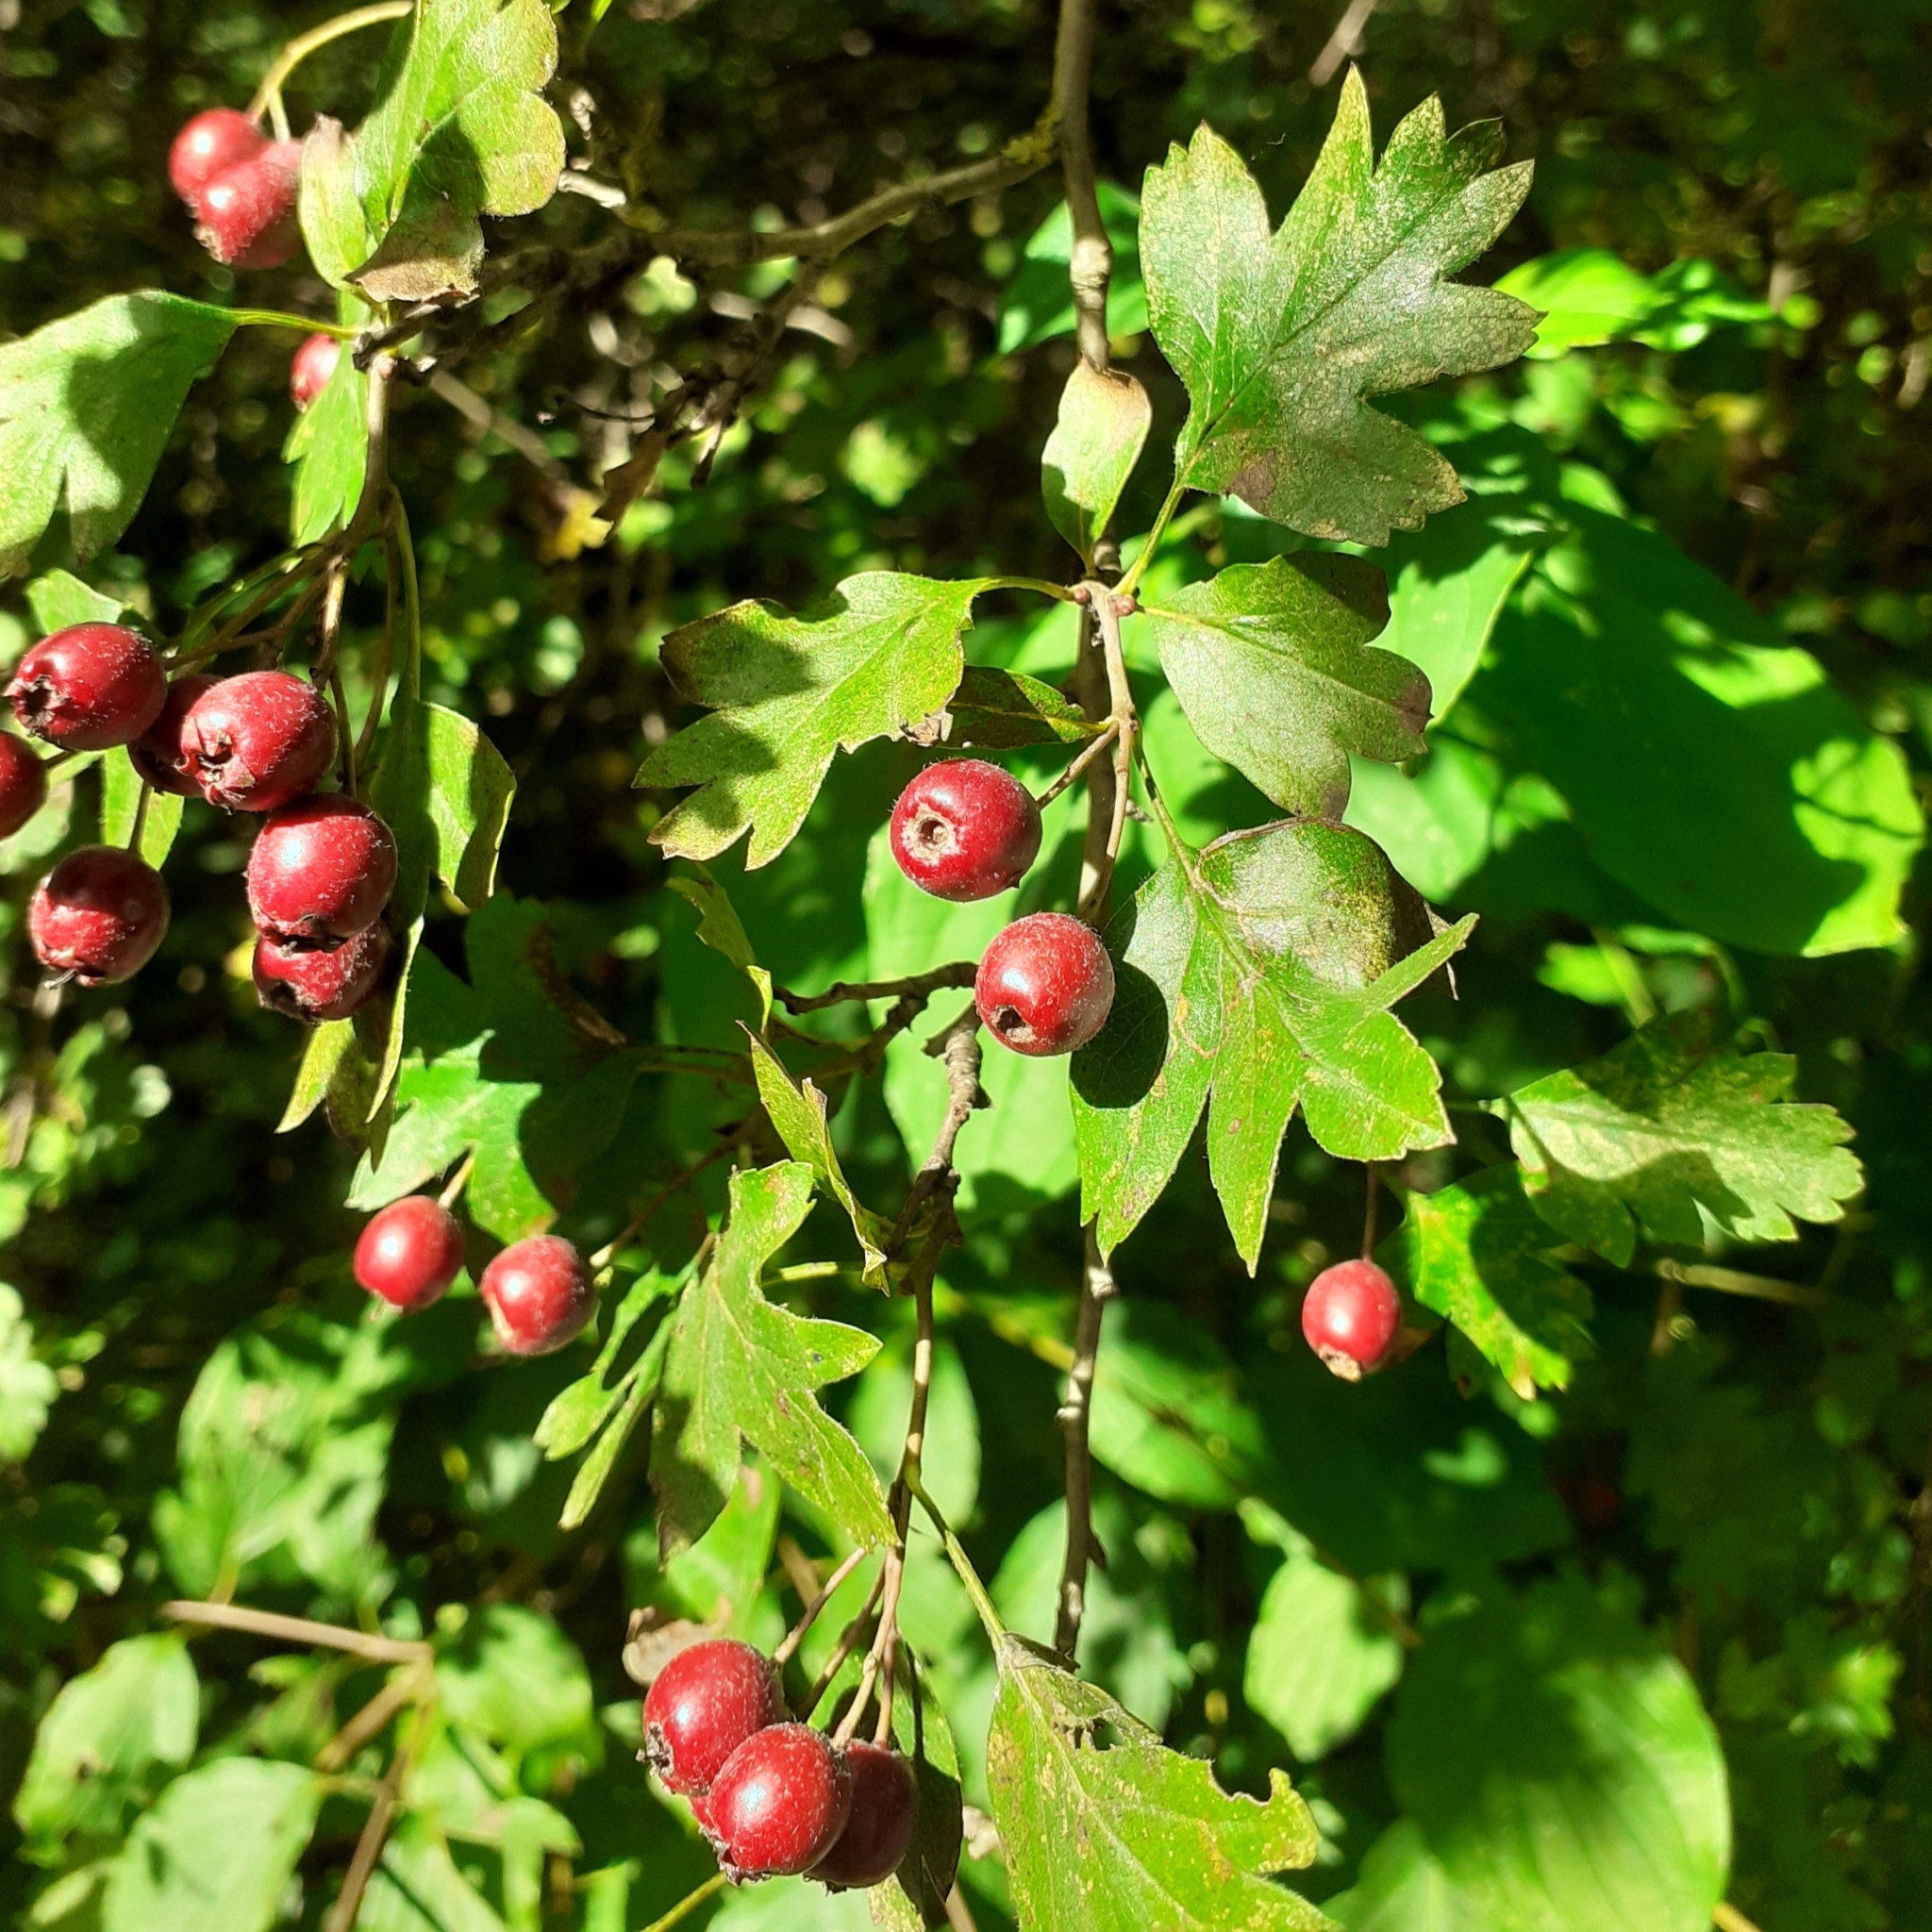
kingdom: Plantae
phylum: Tracheophyta
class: Magnoliopsida
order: Rosales
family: Rosaceae
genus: Crataegus
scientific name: Crataegus monogyna
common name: Hawthorn
